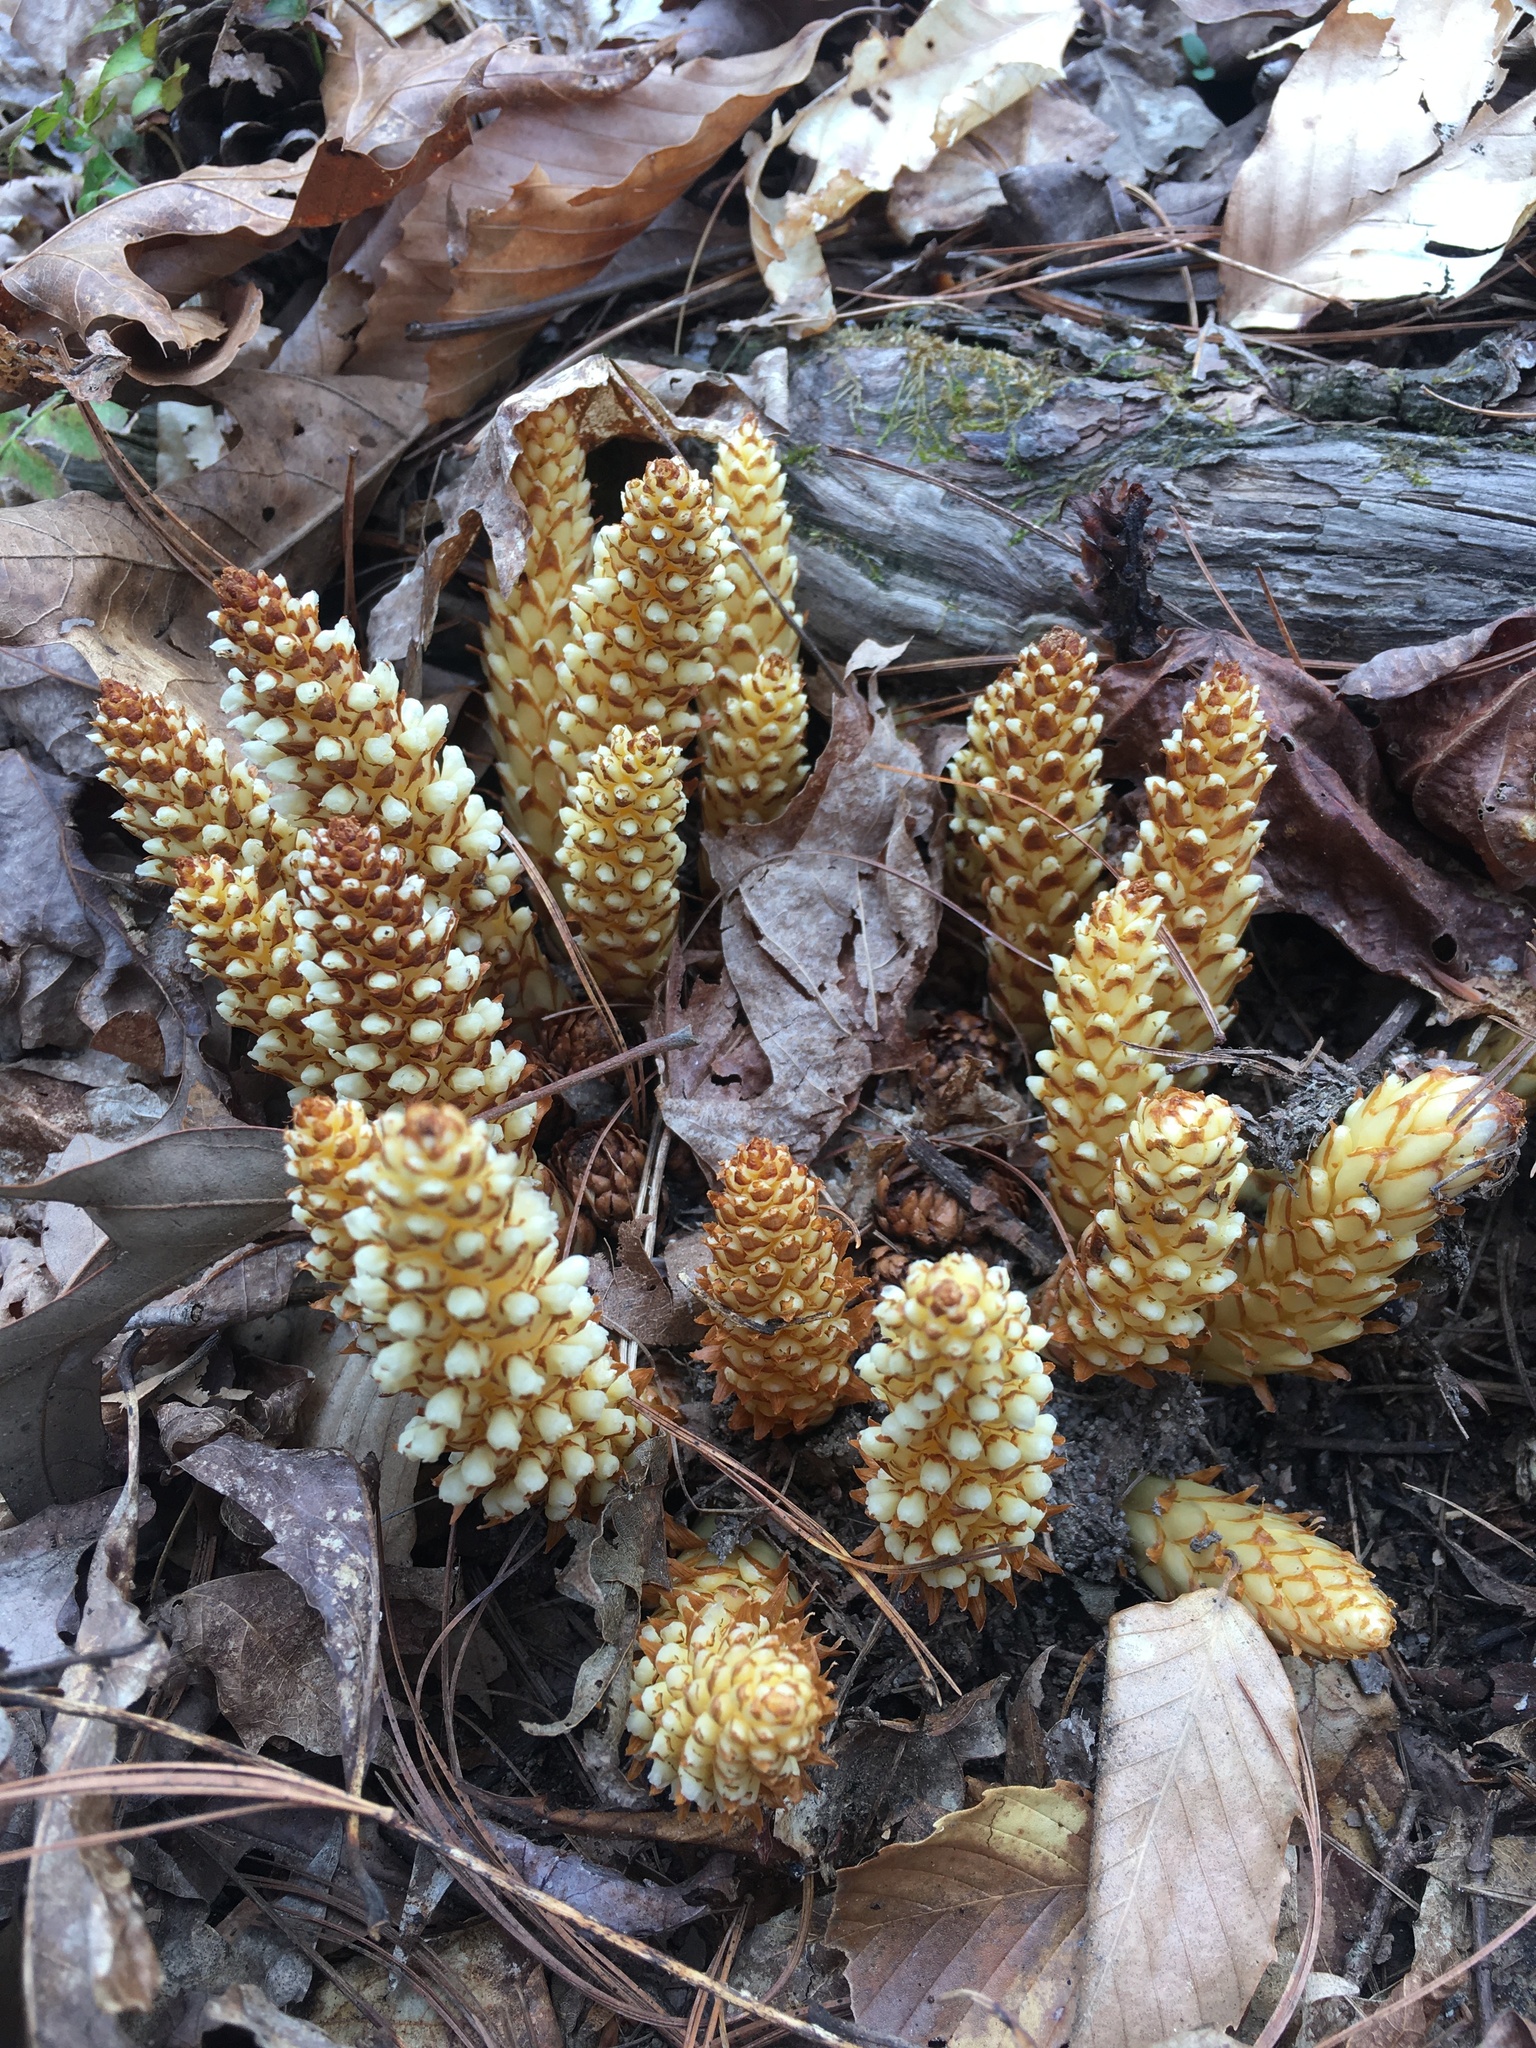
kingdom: Plantae
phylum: Tracheophyta
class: Magnoliopsida
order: Lamiales
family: Orobanchaceae
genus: Conopholis
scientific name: Conopholis americana
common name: American cancer-root
